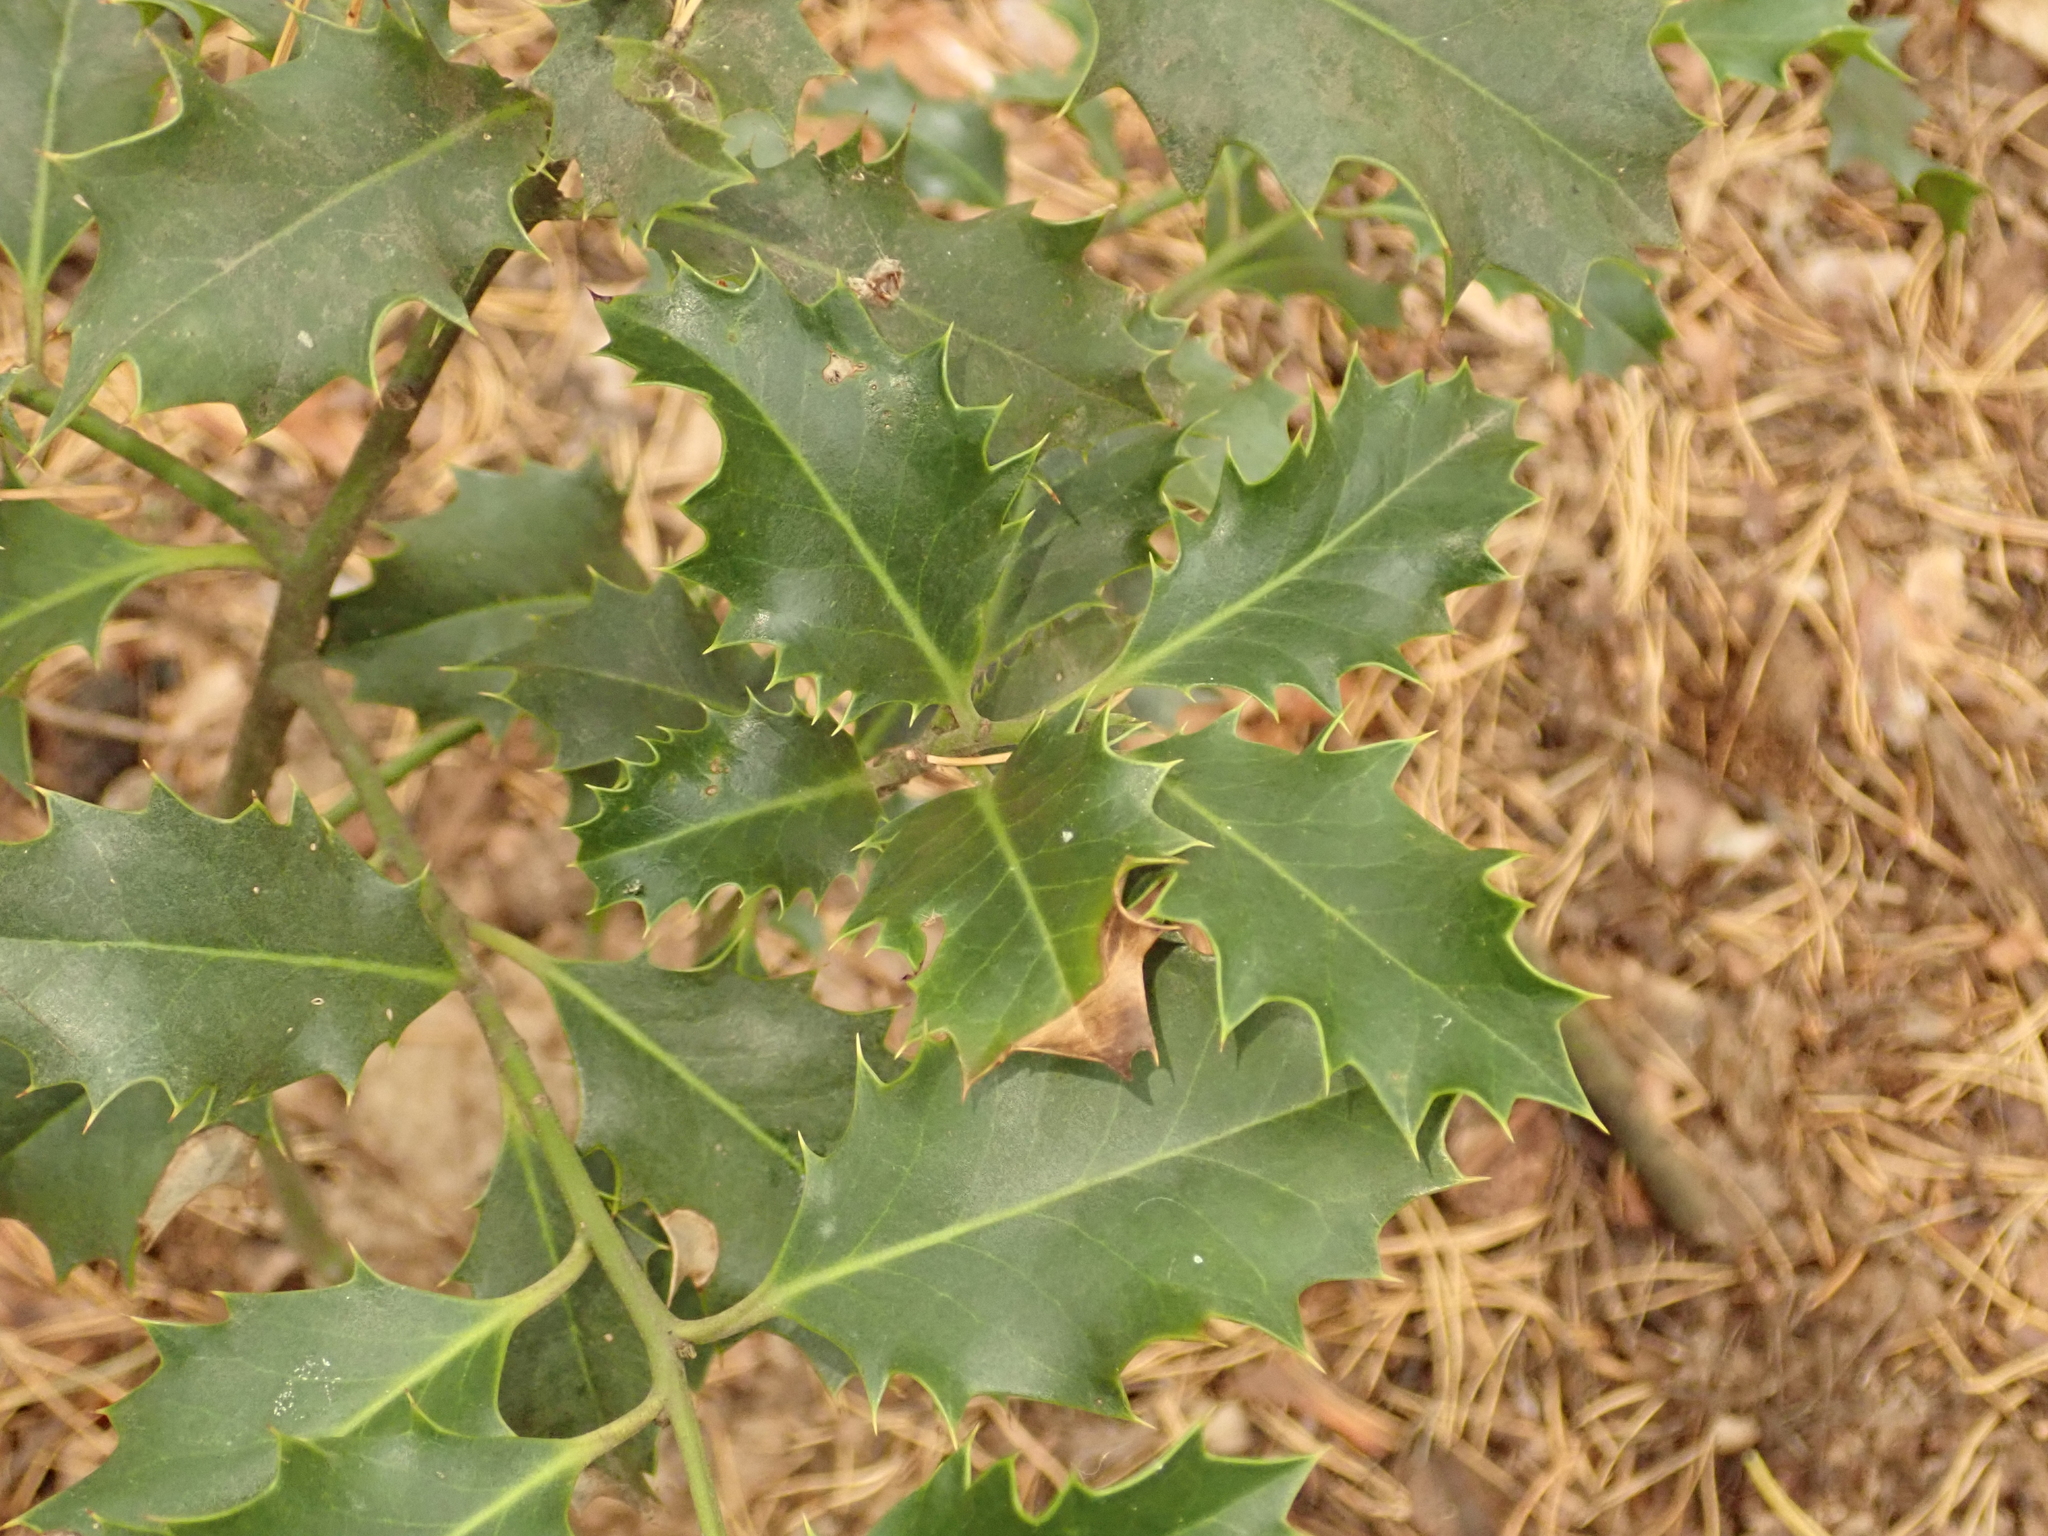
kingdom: Plantae
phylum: Tracheophyta
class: Magnoliopsida
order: Aquifoliales
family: Aquifoliaceae
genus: Ilex
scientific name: Ilex aquifolium
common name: English holly
